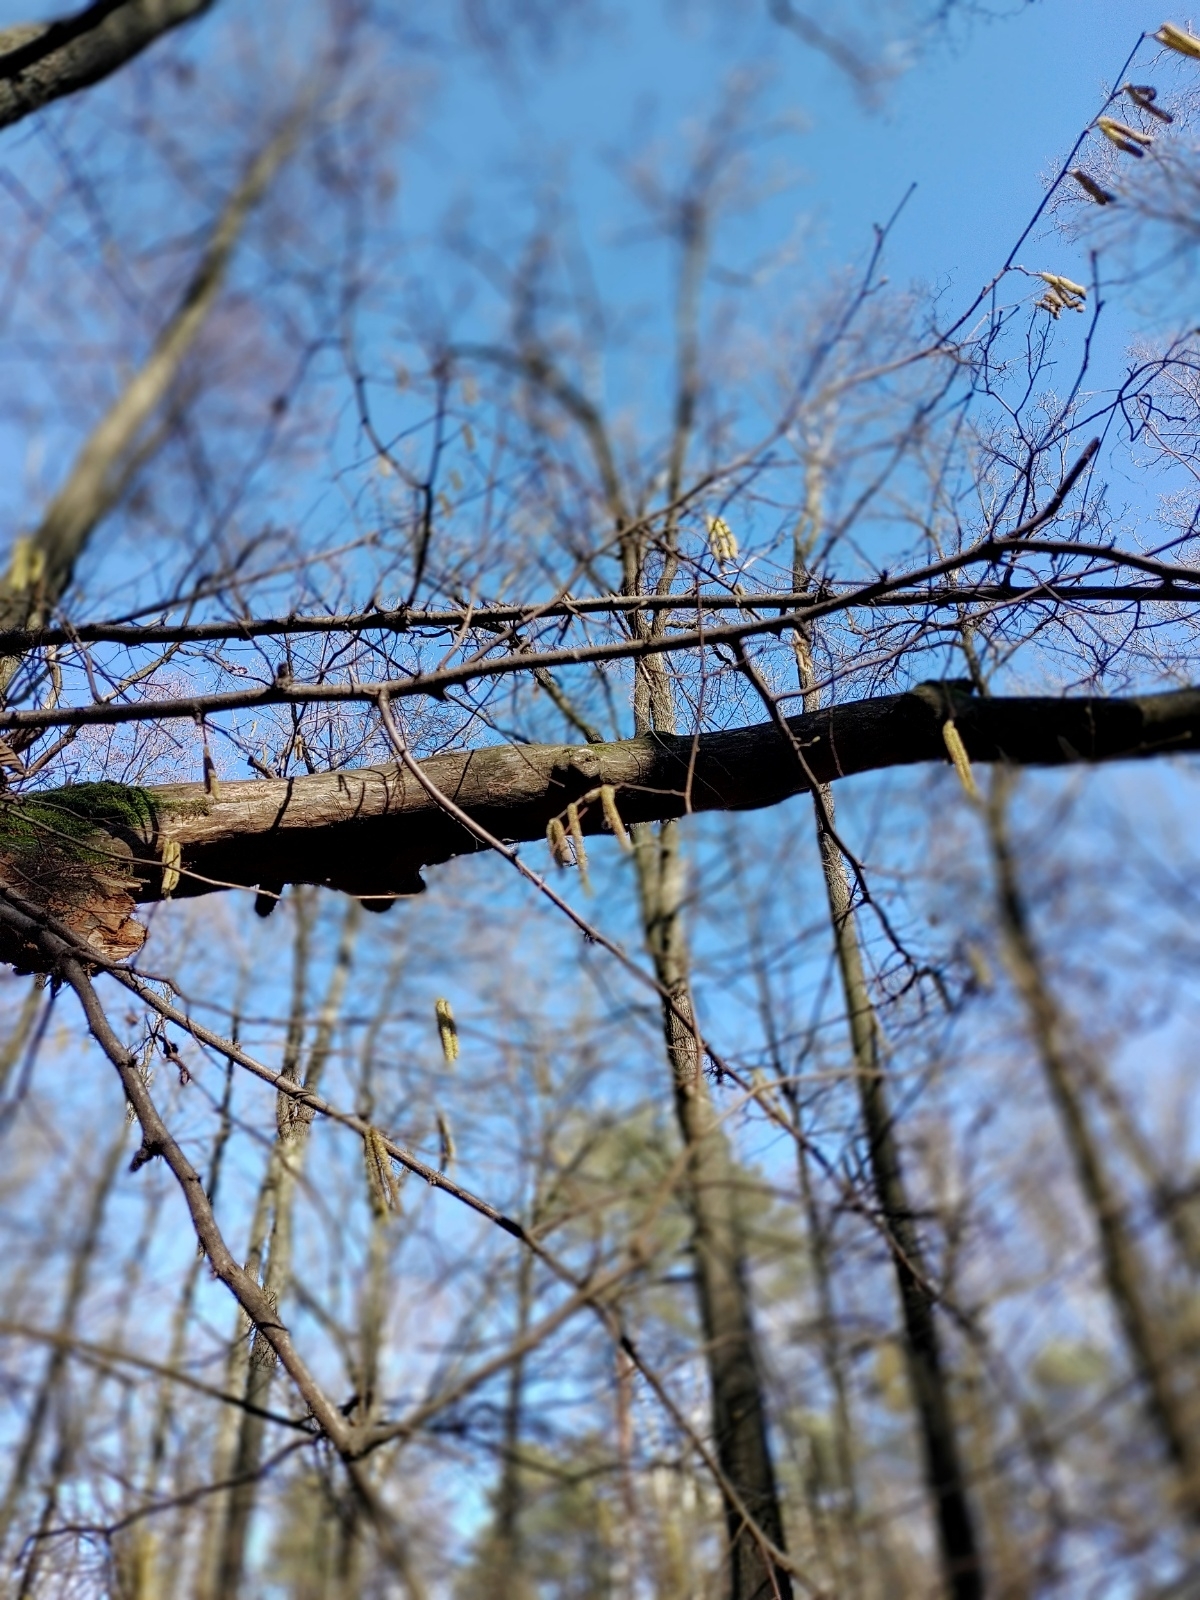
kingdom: Plantae
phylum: Tracheophyta
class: Magnoliopsida
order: Fagales
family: Betulaceae
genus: Corylus
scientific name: Corylus avellana
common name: European hazel
